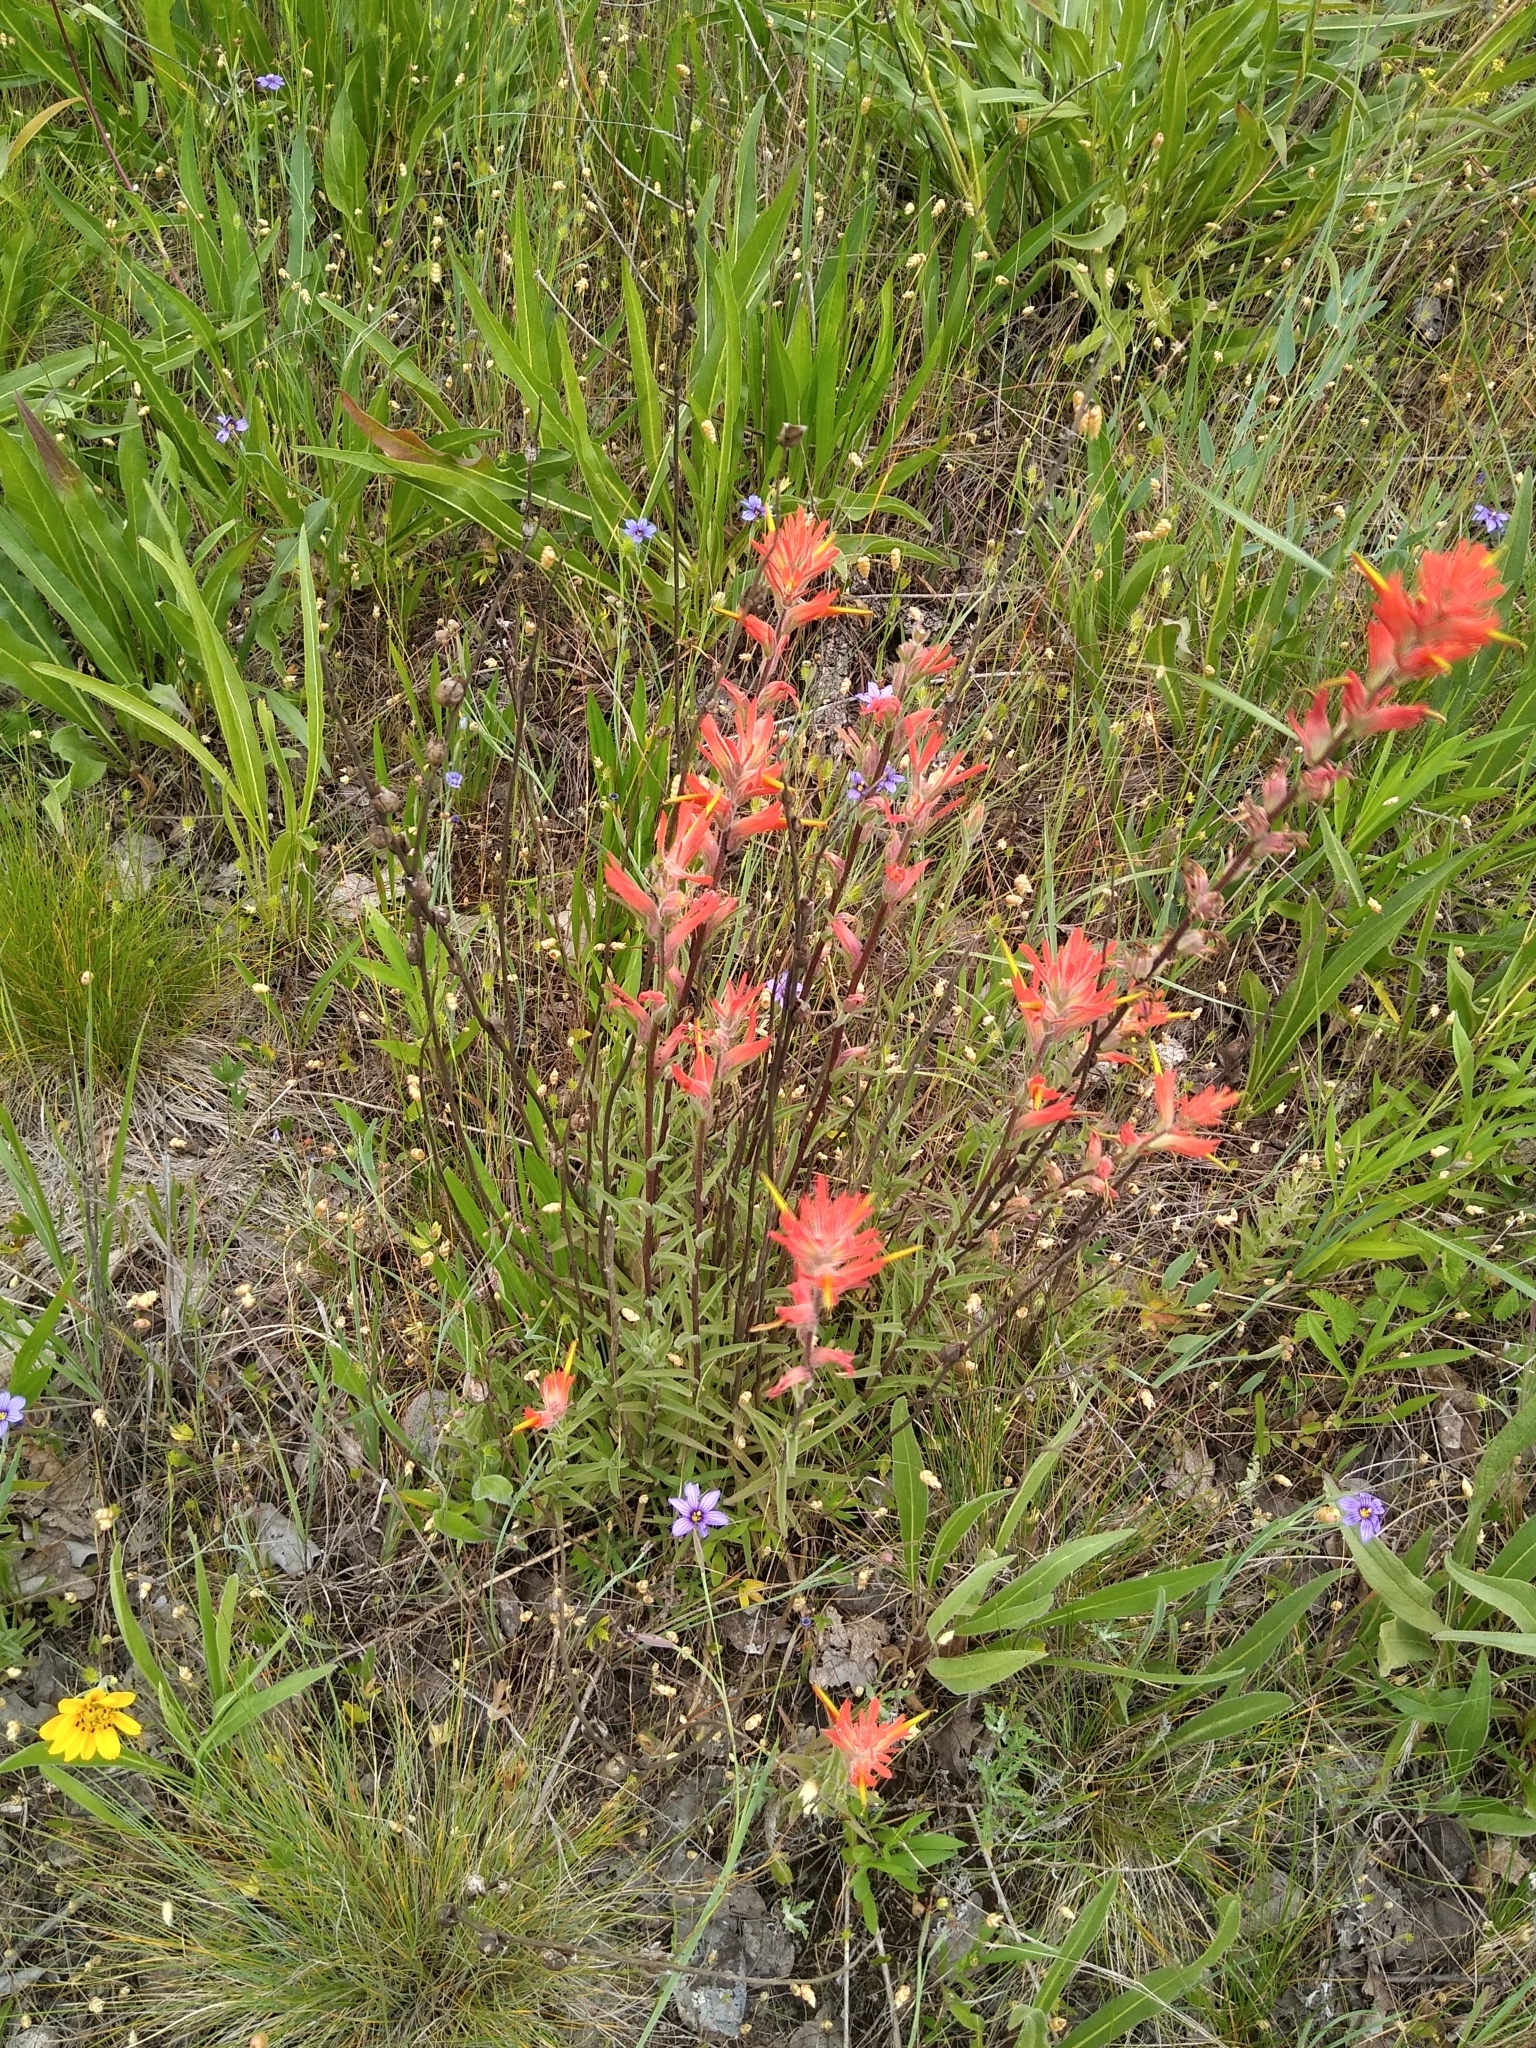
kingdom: Plantae
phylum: Tracheophyta
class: Magnoliopsida
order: Lamiales
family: Orobanchaceae
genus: Castilleja
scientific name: Castilleja affinis
